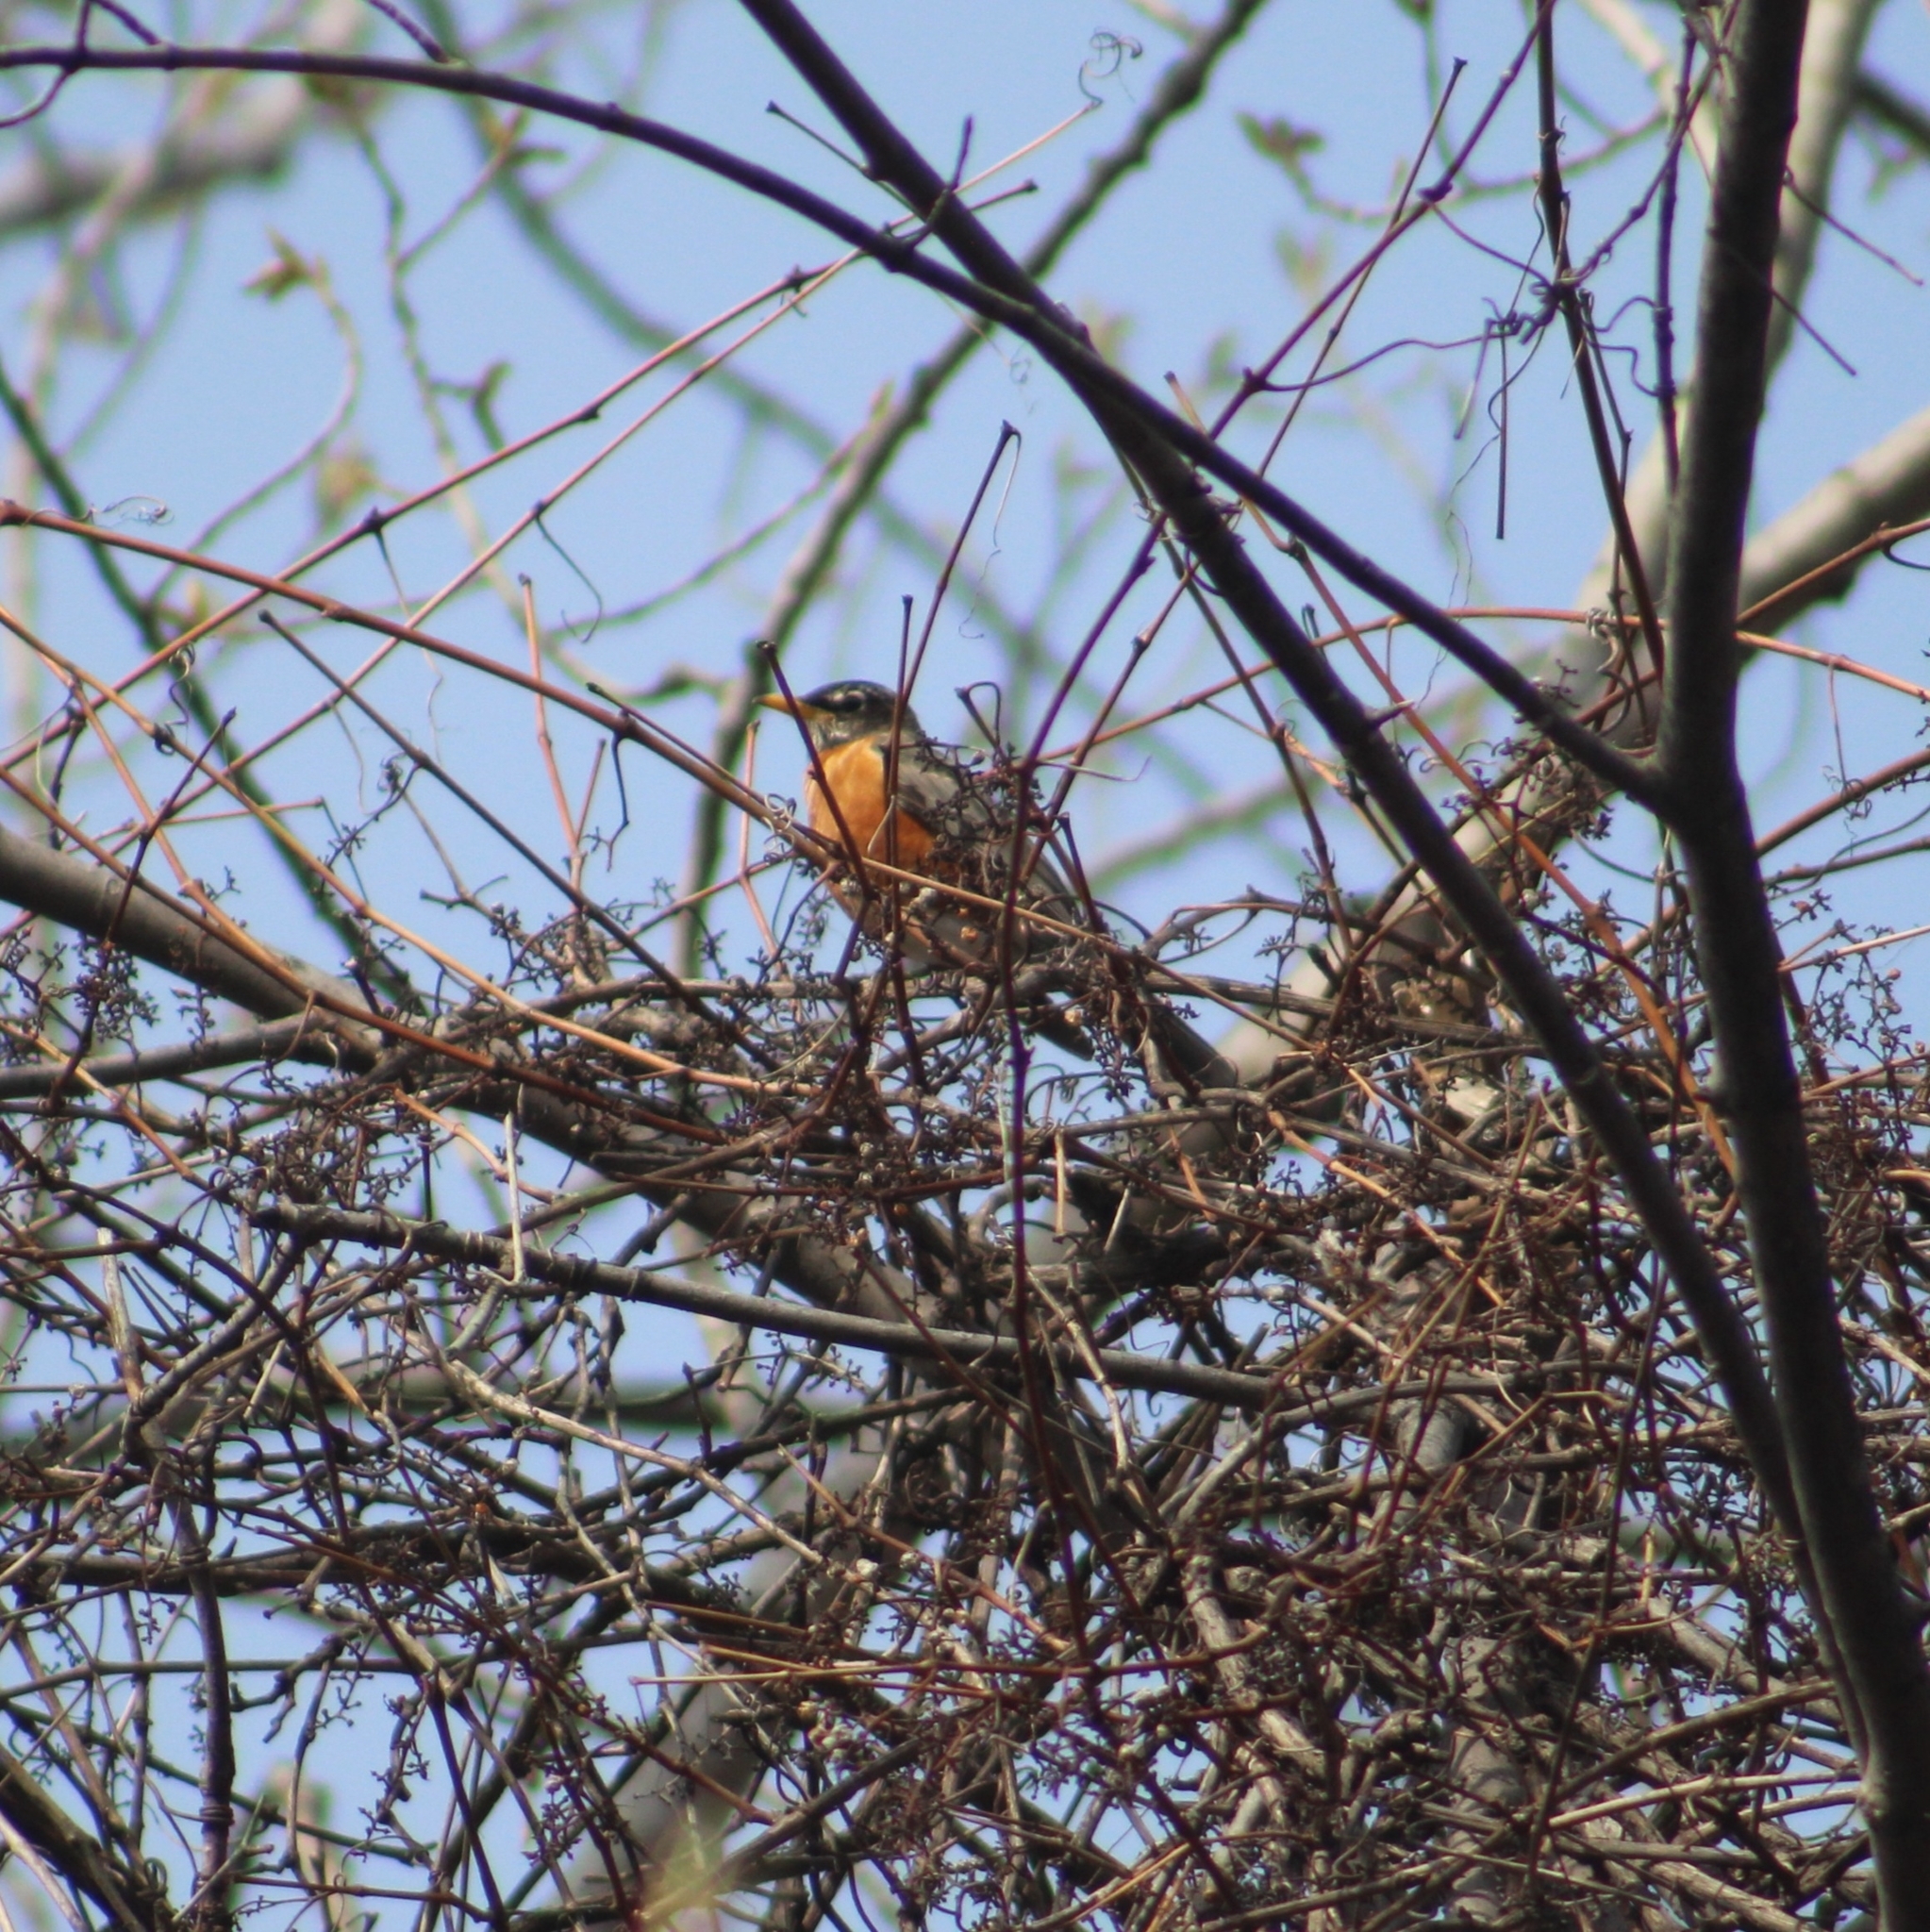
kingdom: Animalia
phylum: Chordata
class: Aves
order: Passeriformes
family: Turdidae
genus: Turdus
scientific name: Turdus migratorius
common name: American robin
